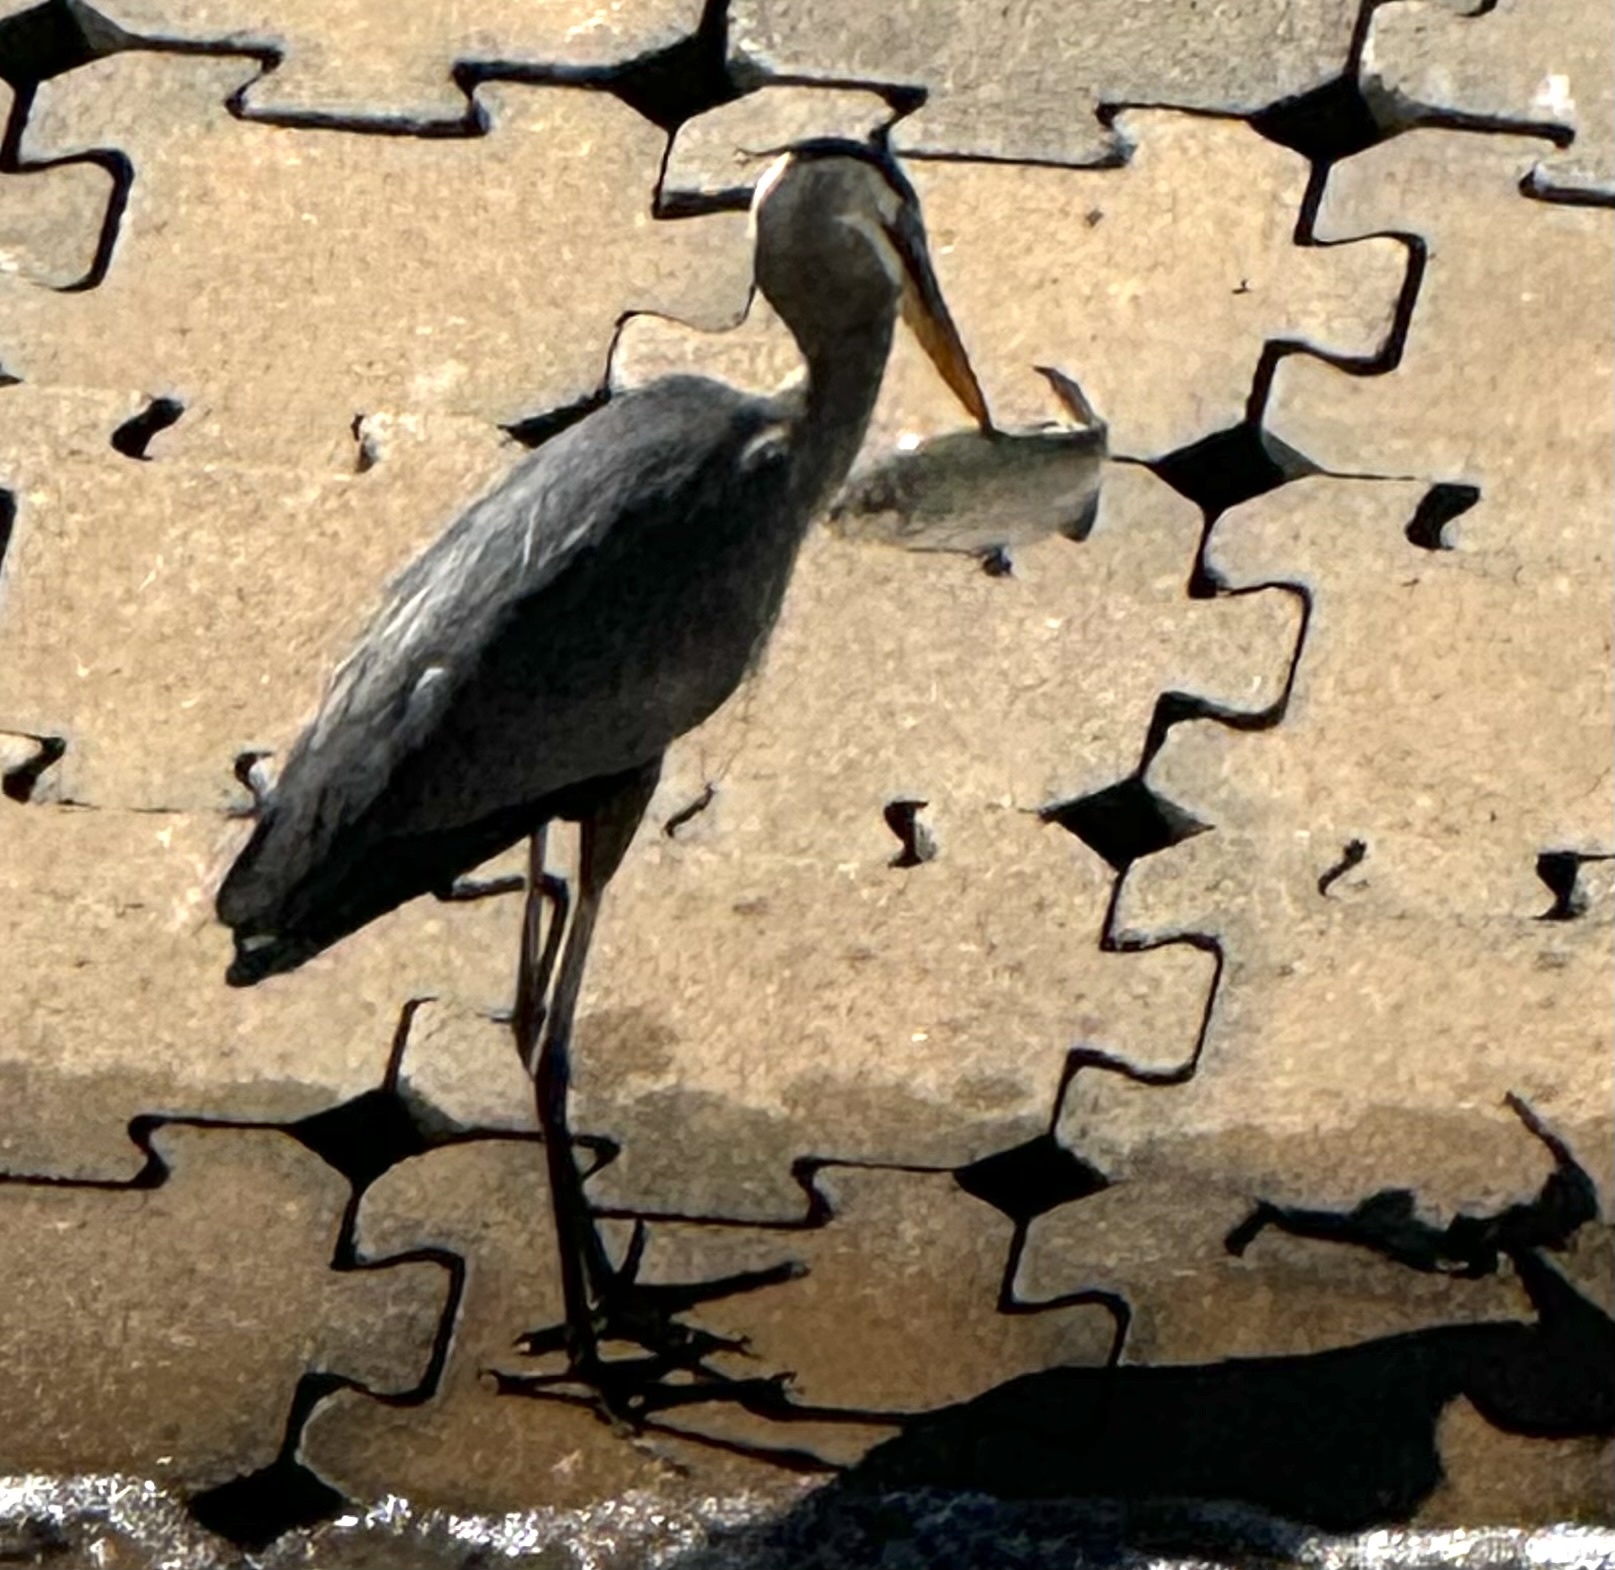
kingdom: Animalia
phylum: Chordata
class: Aves
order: Pelecaniformes
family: Ardeidae
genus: Ardea
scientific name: Ardea herodias
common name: Great blue heron
